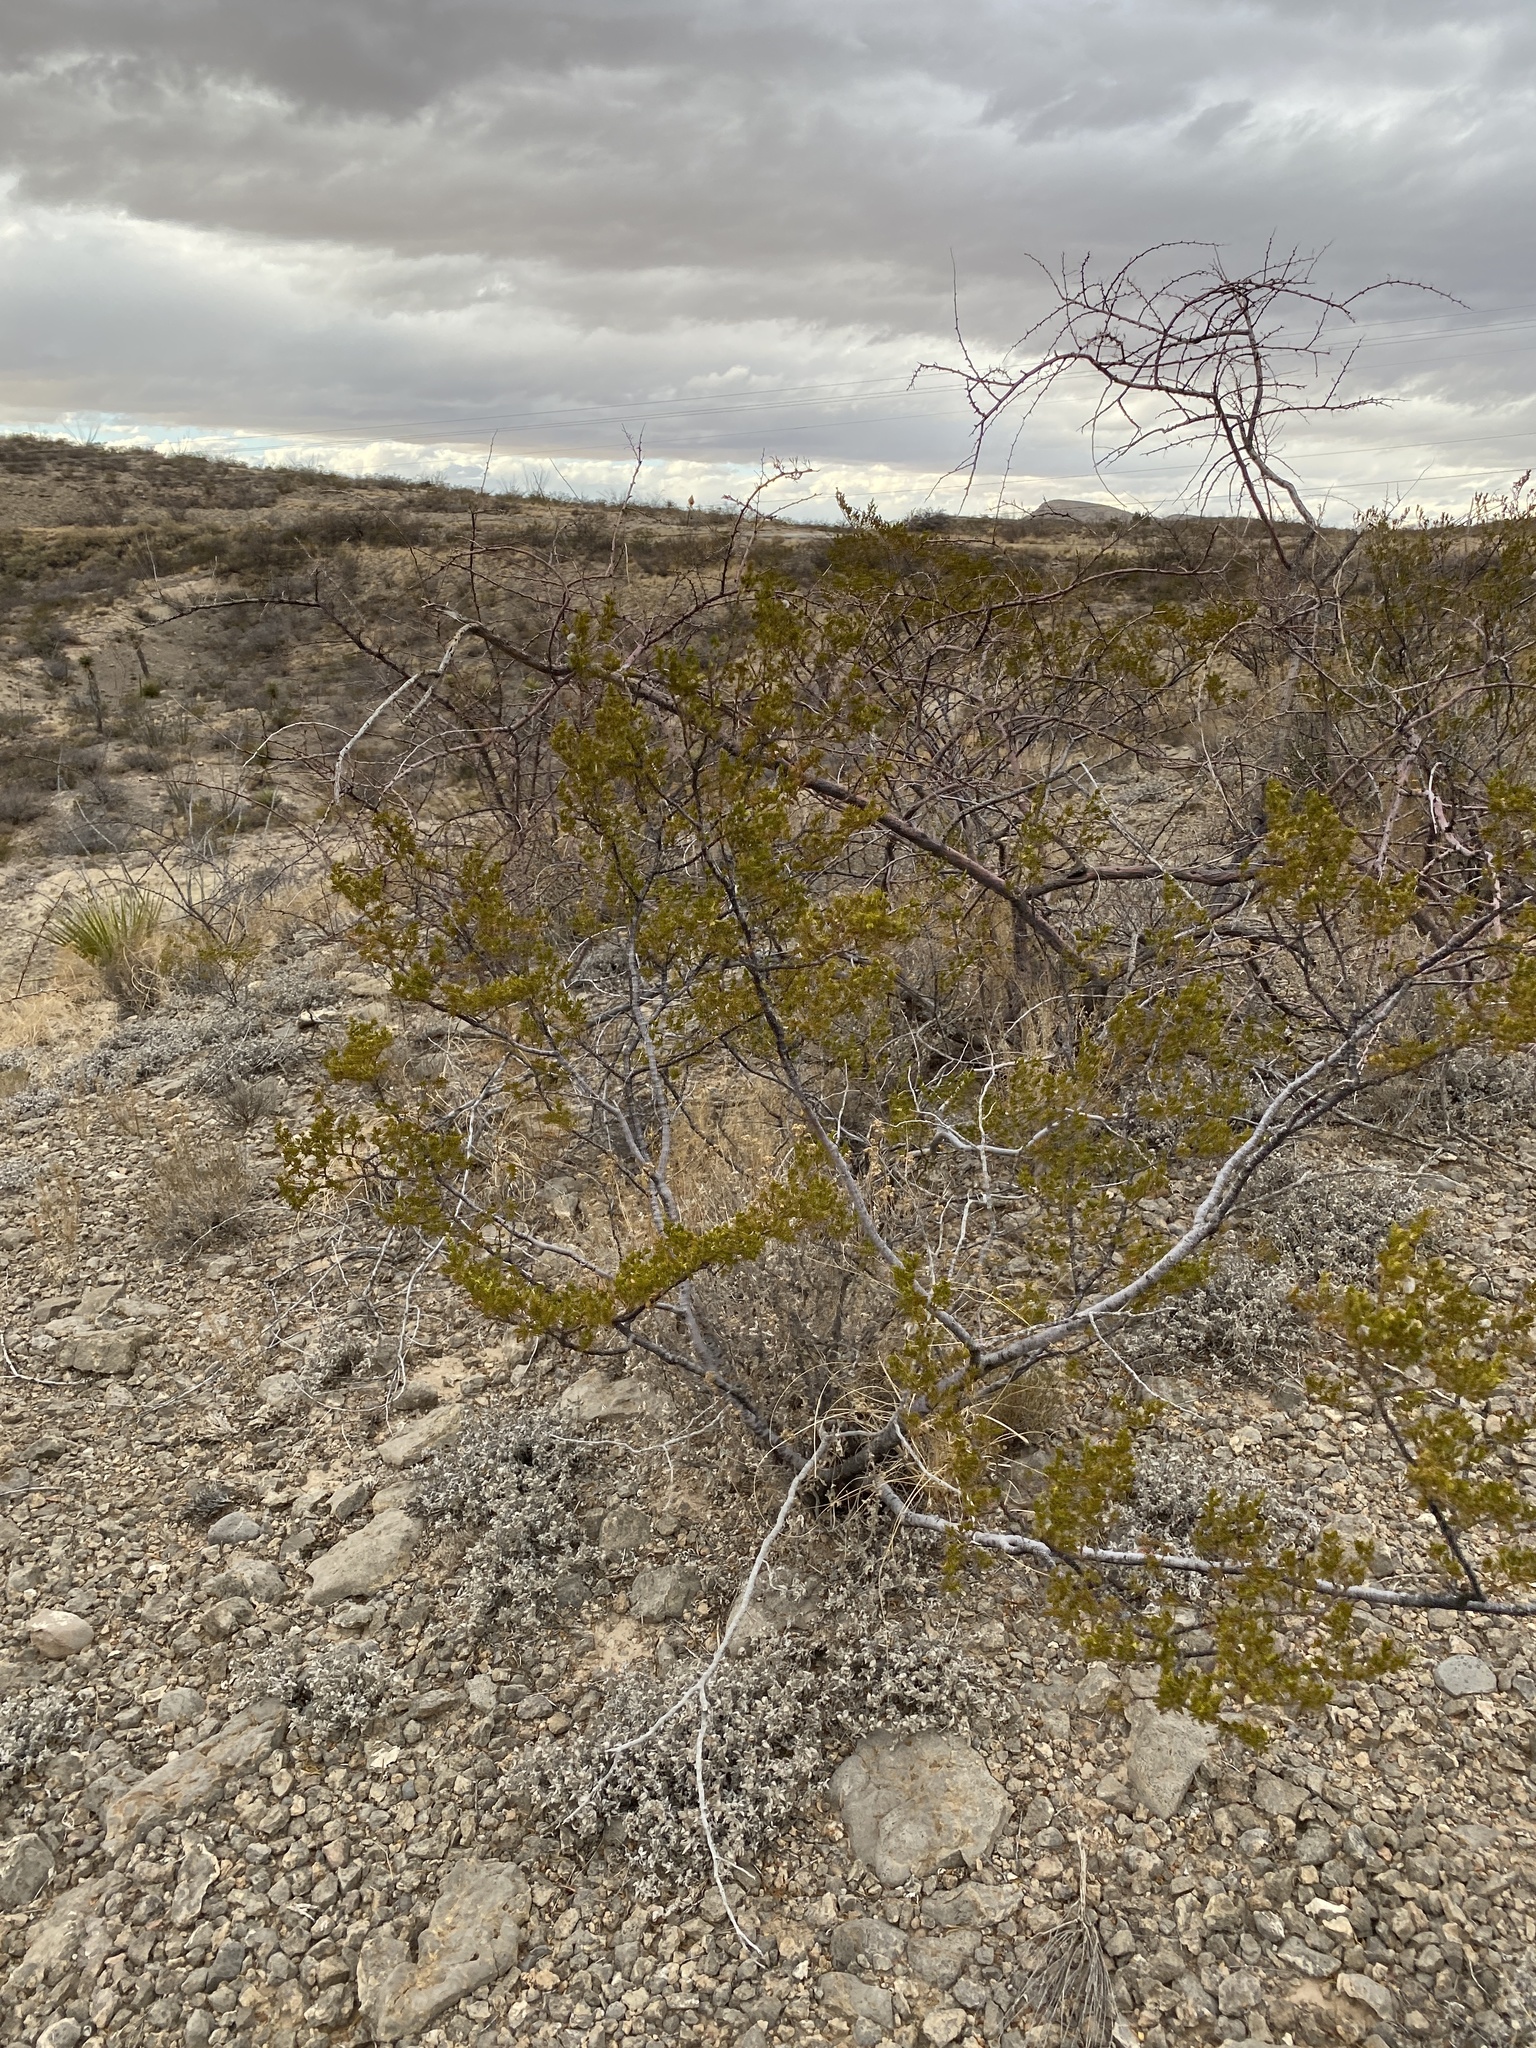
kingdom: Plantae
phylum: Tracheophyta
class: Magnoliopsida
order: Zygophyllales
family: Zygophyllaceae
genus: Larrea
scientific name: Larrea tridentata
